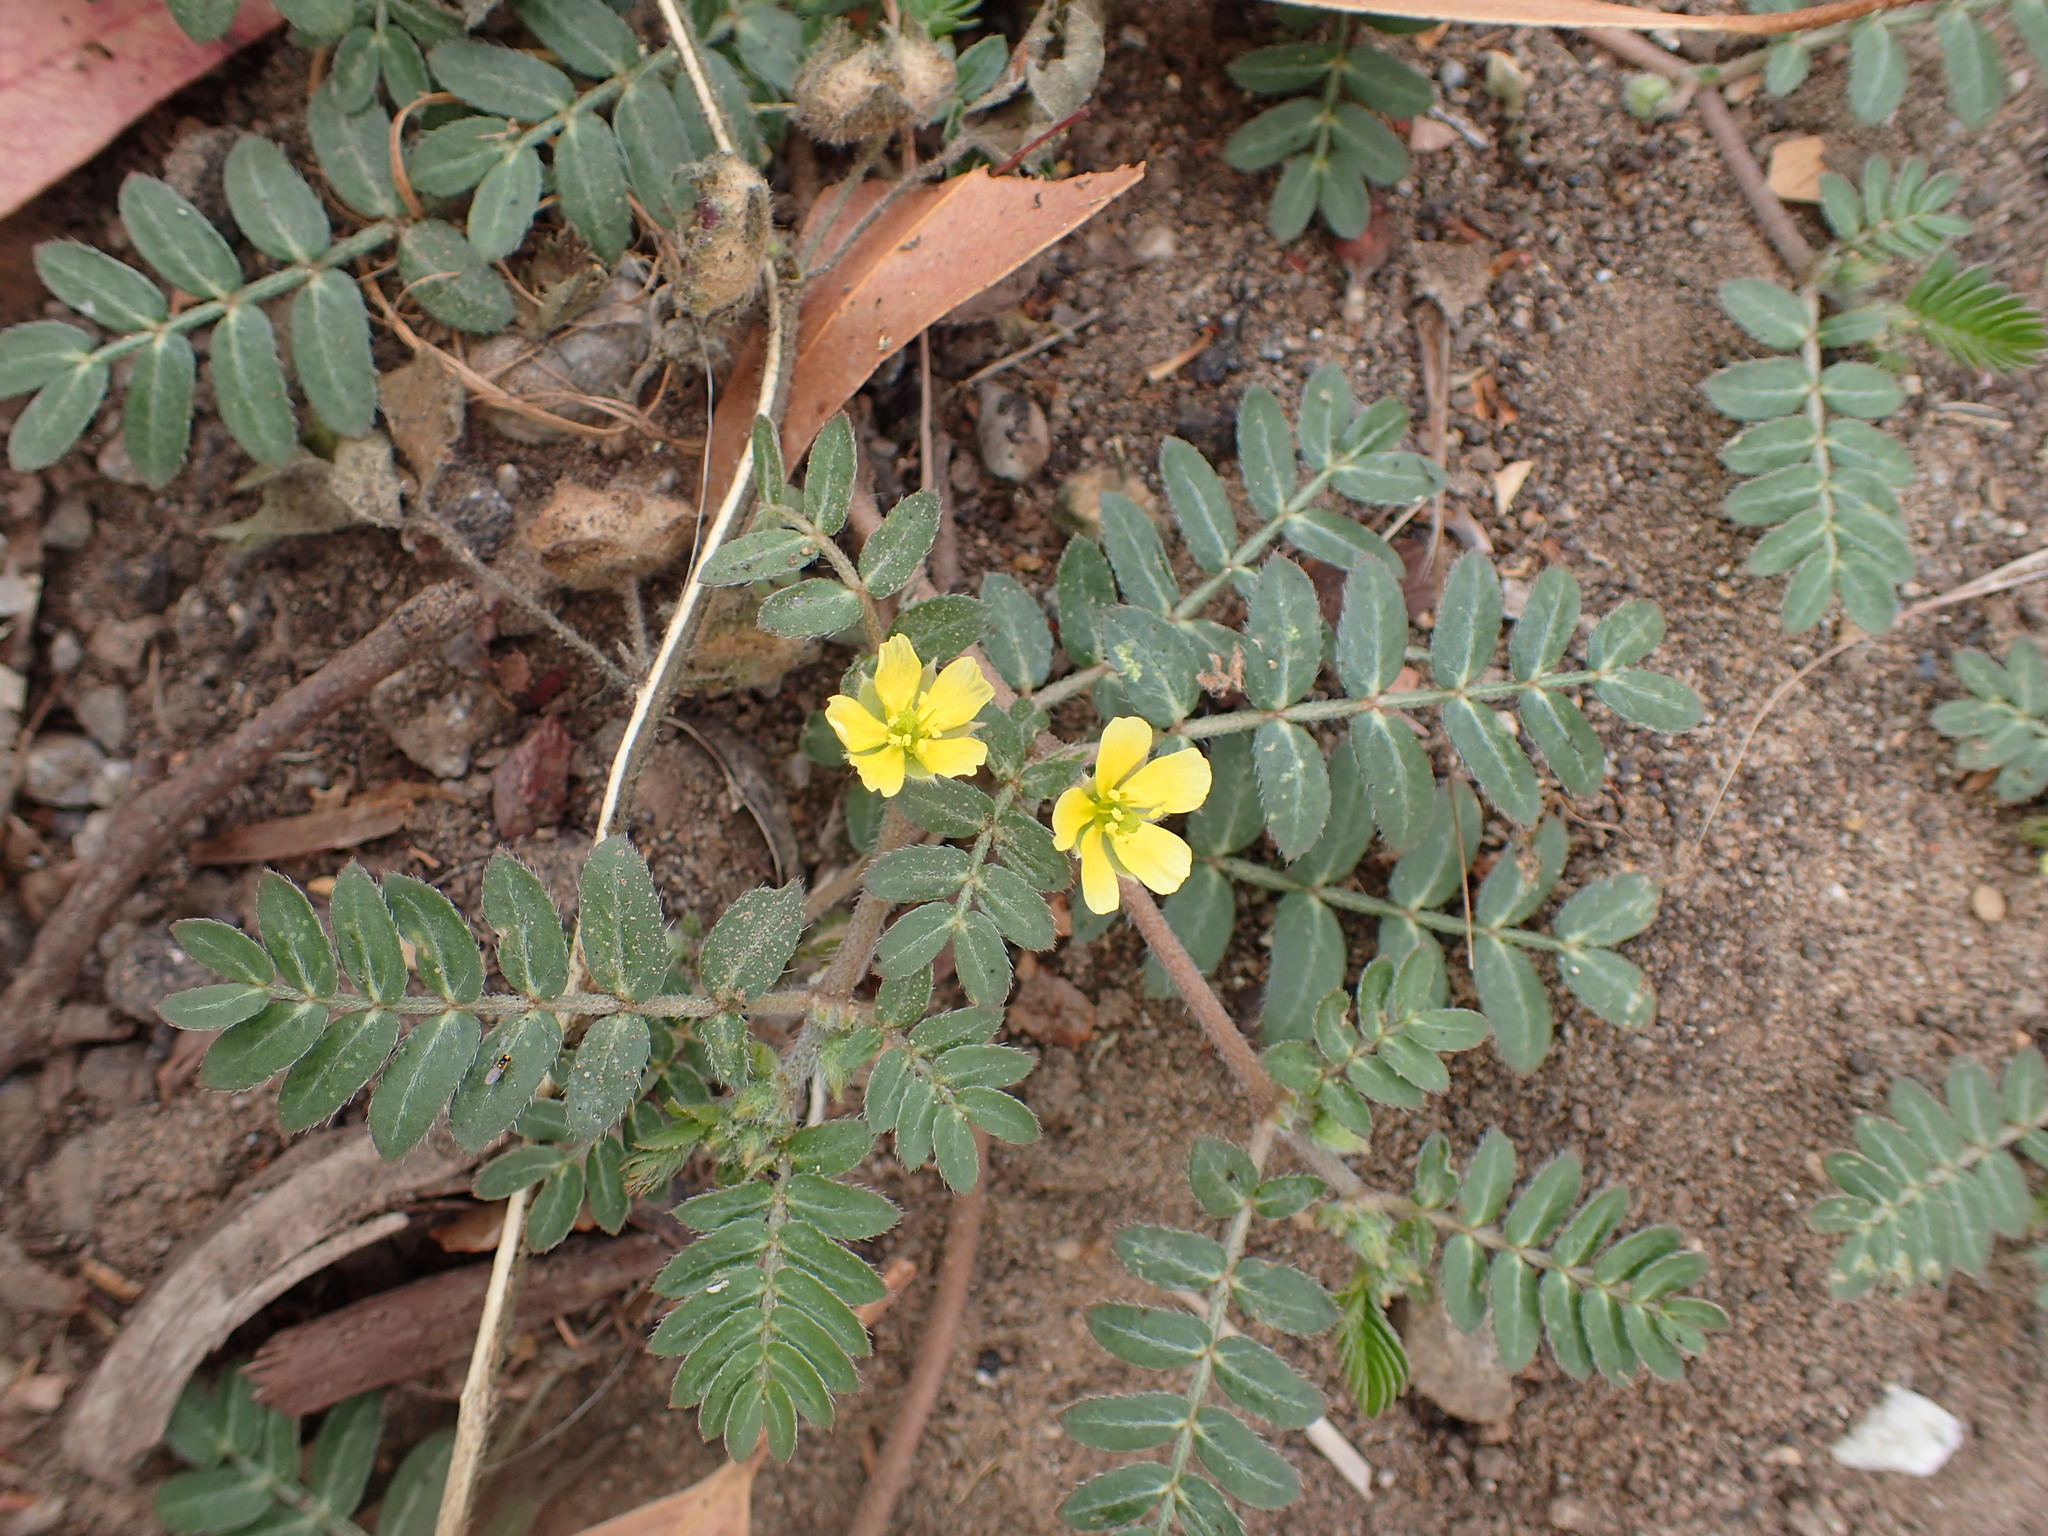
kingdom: Plantae
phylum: Tracheophyta
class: Magnoliopsida
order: Zygophyllales
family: Zygophyllaceae
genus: Tribulus
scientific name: Tribulus terrestris
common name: Puncturevine
